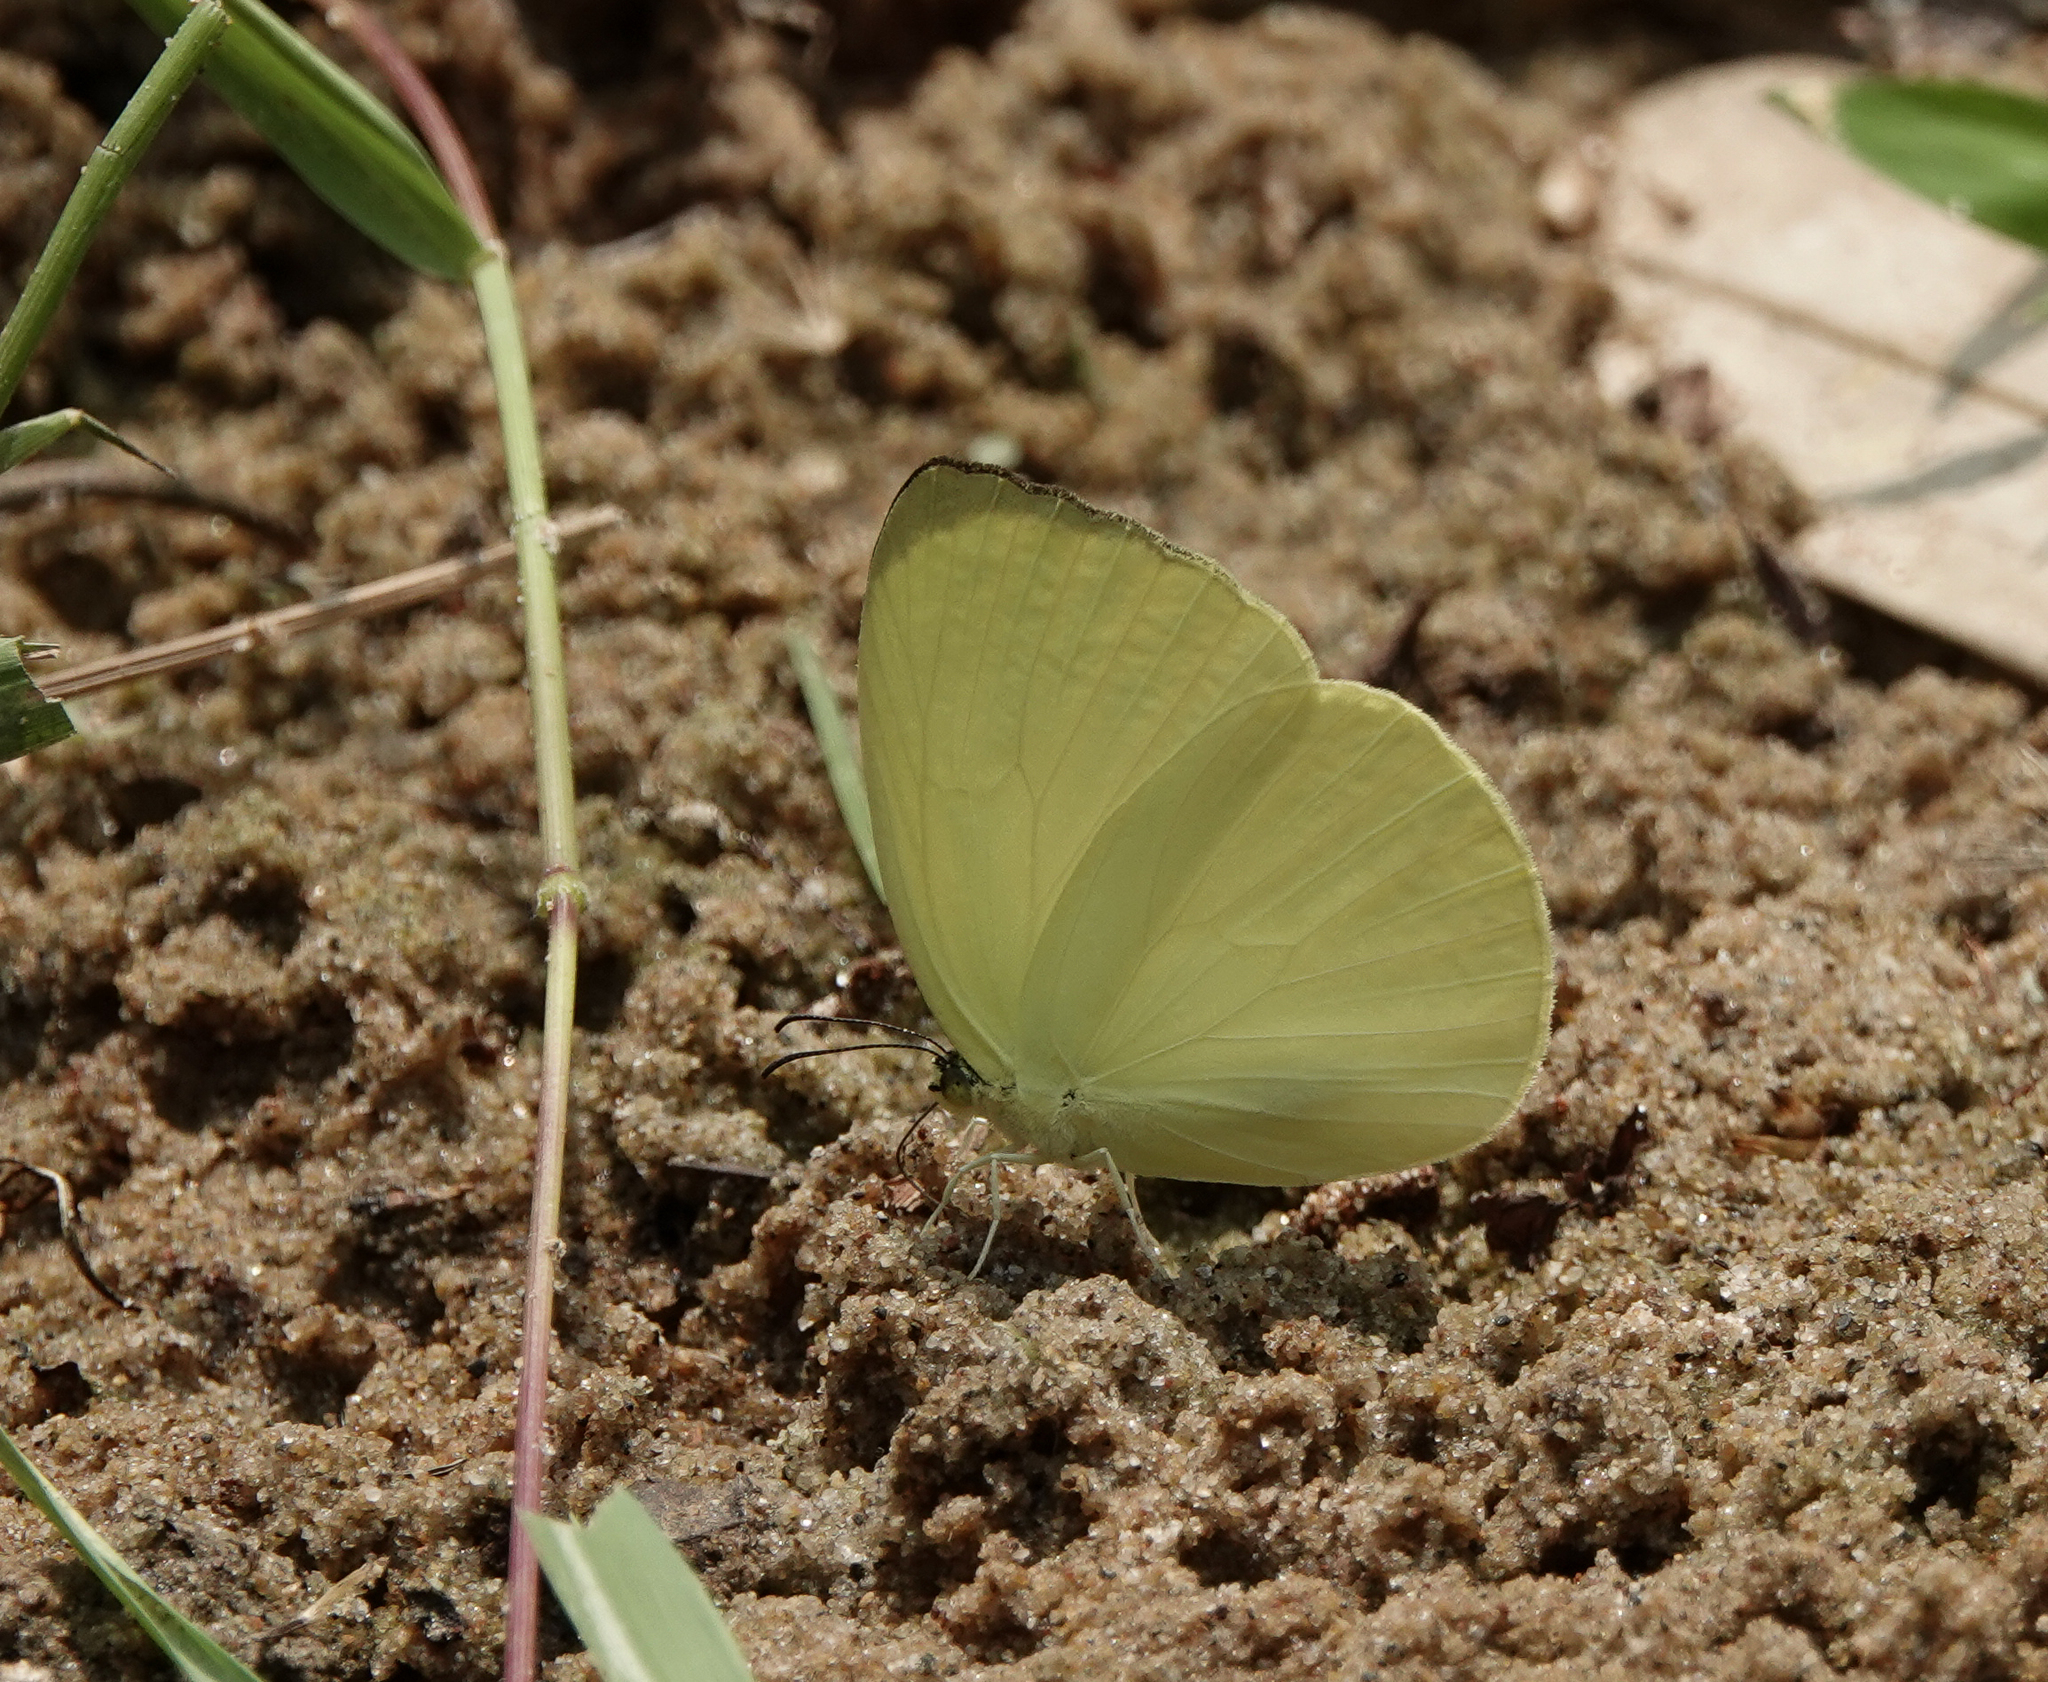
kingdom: Animalia
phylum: Arthropoda
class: Insecta
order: Lepidoptera
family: Pieridae
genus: Gandaca
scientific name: Gandaca harina
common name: Tree yellow
